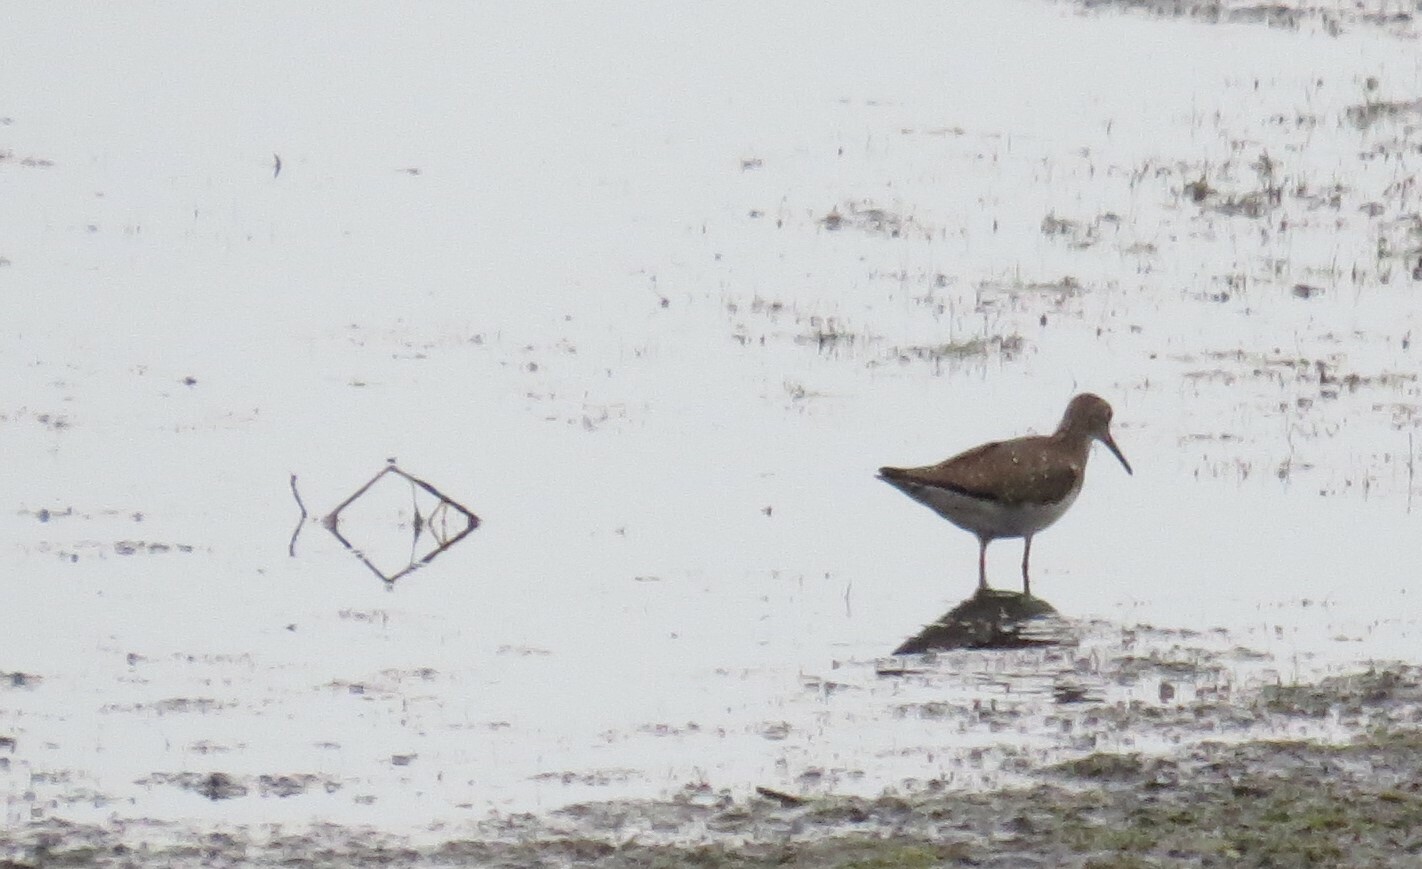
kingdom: Animalia
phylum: Chordata
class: Aves
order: Charadriiformes
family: Scolopacidae
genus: Tringa
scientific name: Tringa solitaria
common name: Solitary sandpiper
